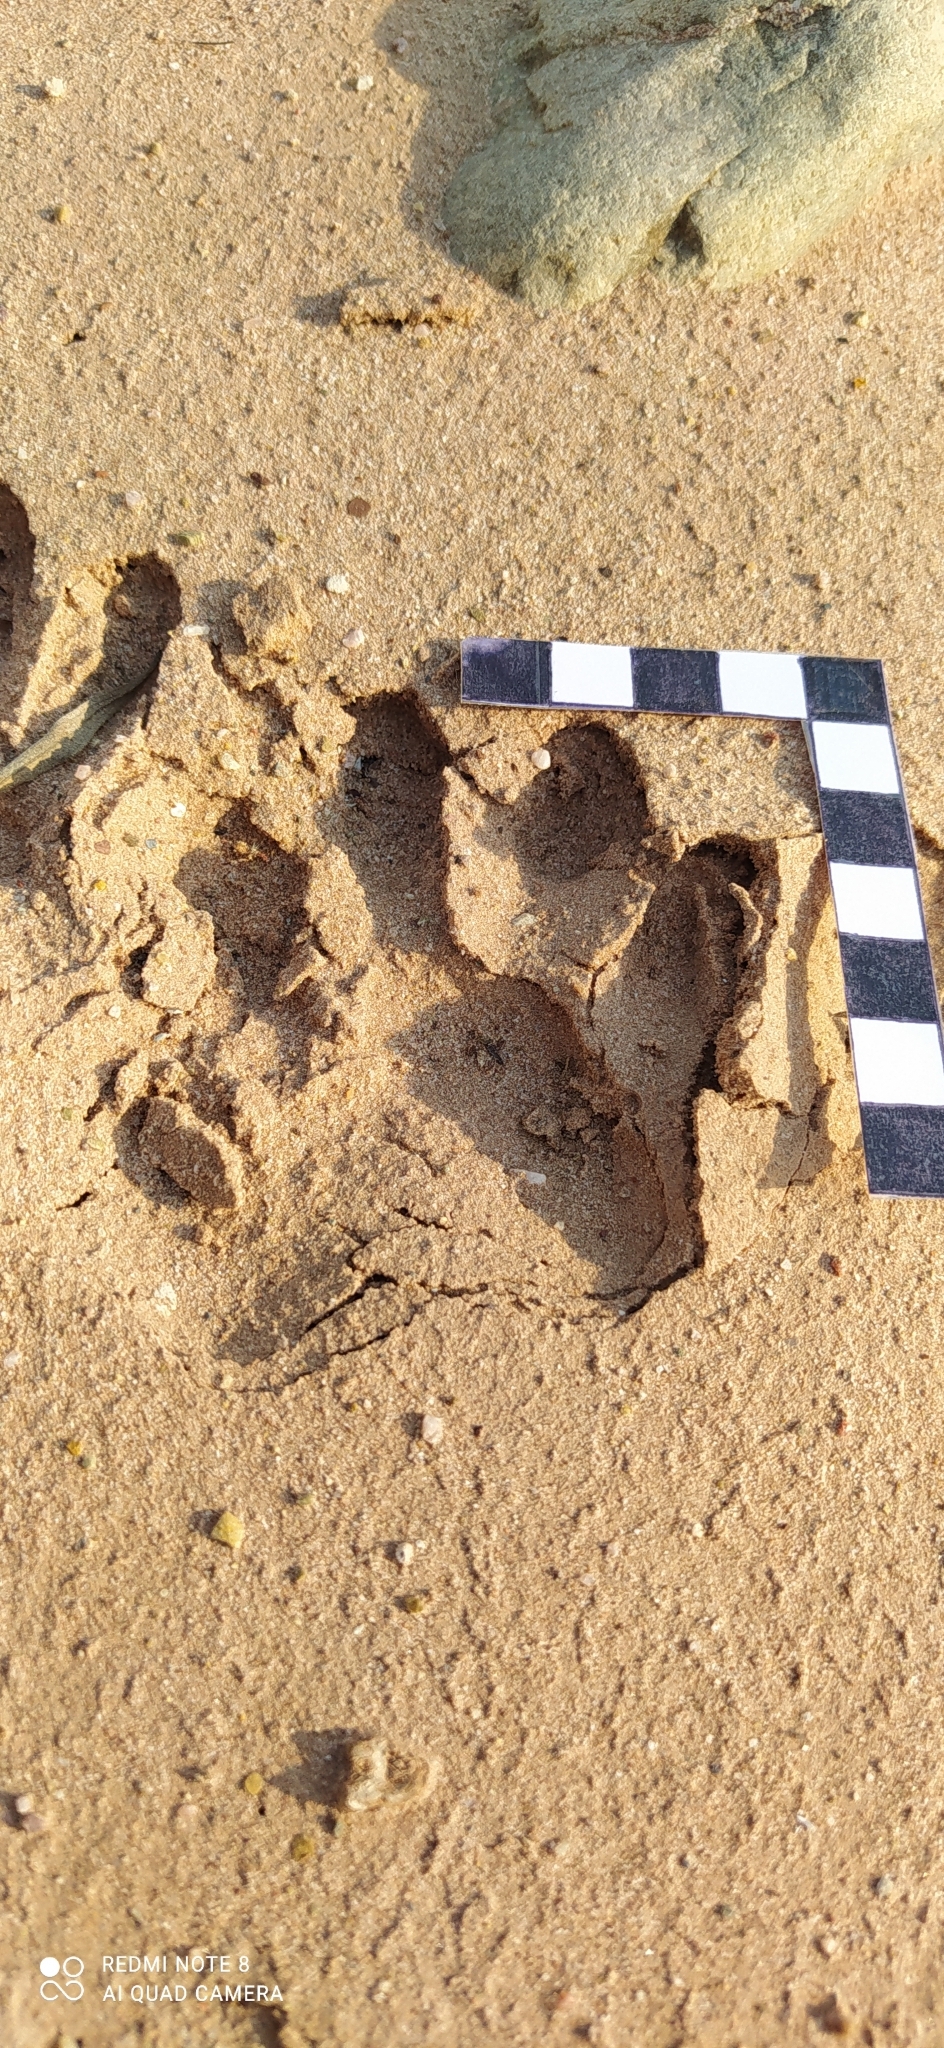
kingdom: Animalia
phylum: Chordata
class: Mammalia
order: Carnivora
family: Procyonidae
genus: Procyon
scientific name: Procyon cancrivorus
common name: Crab-eating raccoon
